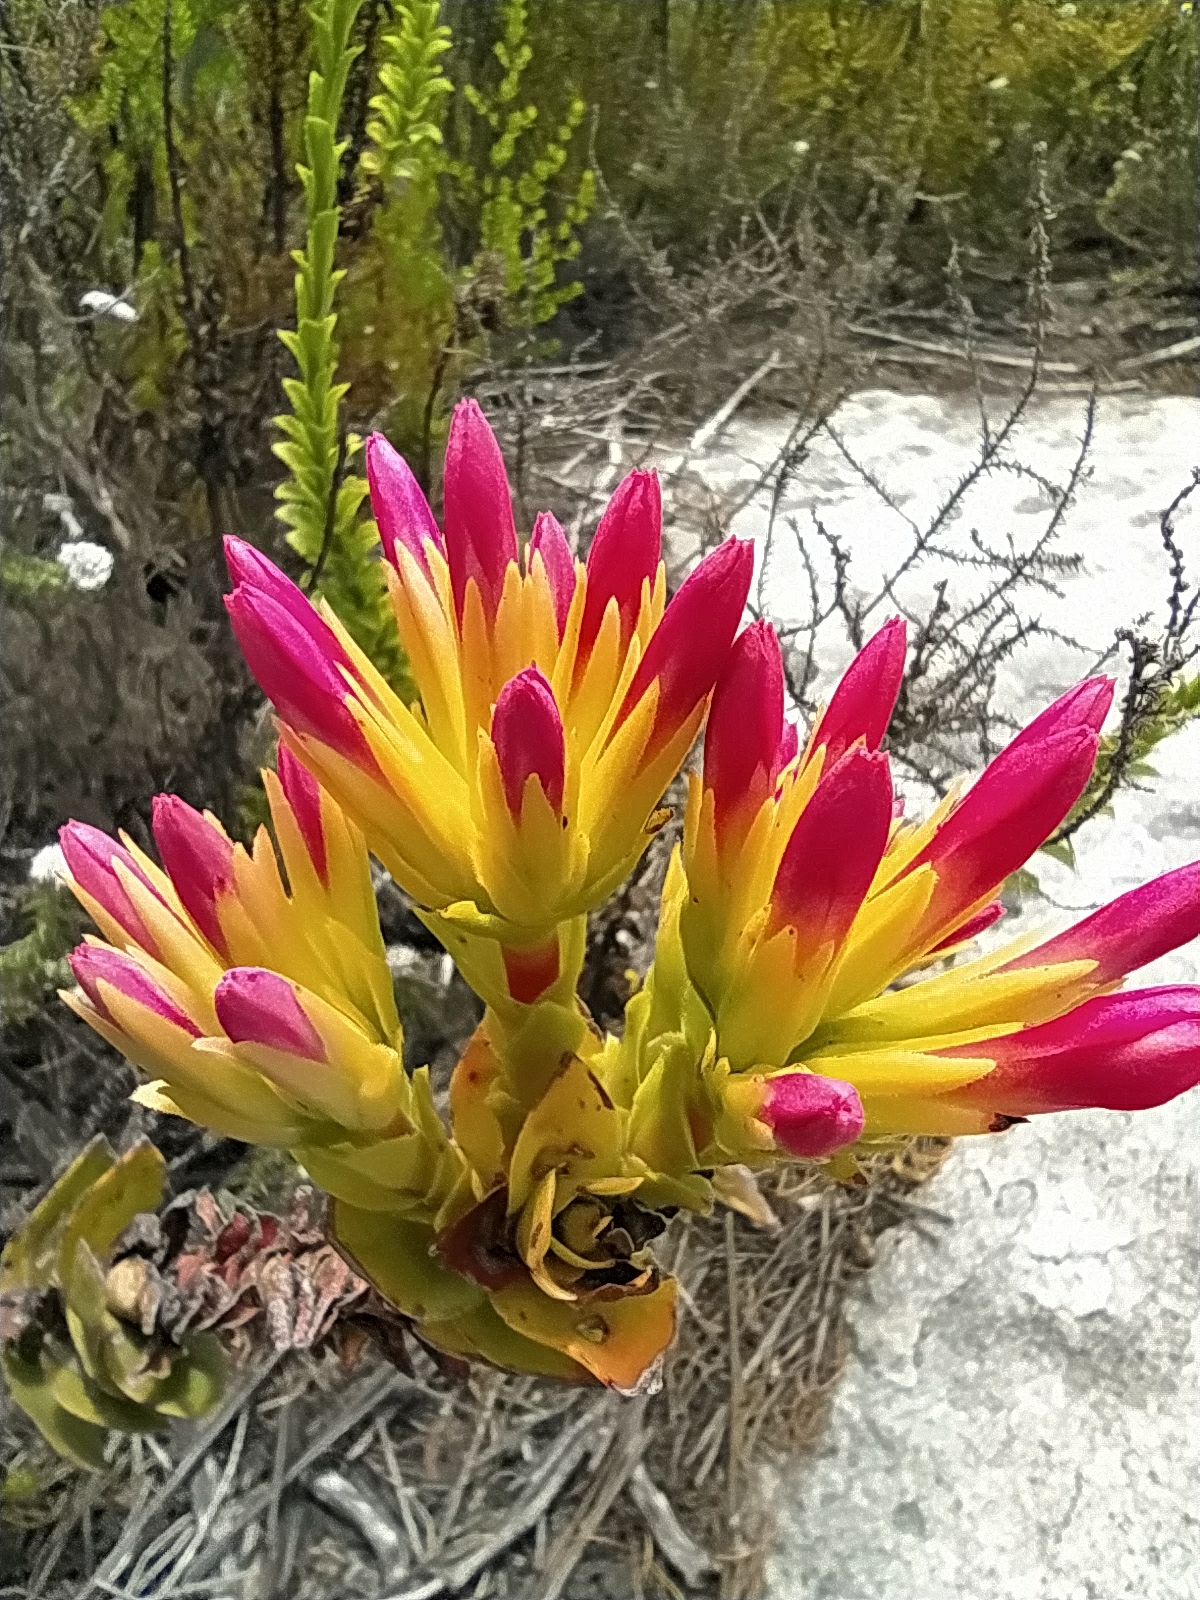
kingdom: Plantae
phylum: Tracheophyta
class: Magnoliopsida
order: Saxifragales
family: Crassulaceae
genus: Crassula
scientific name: Crassula coccinea
